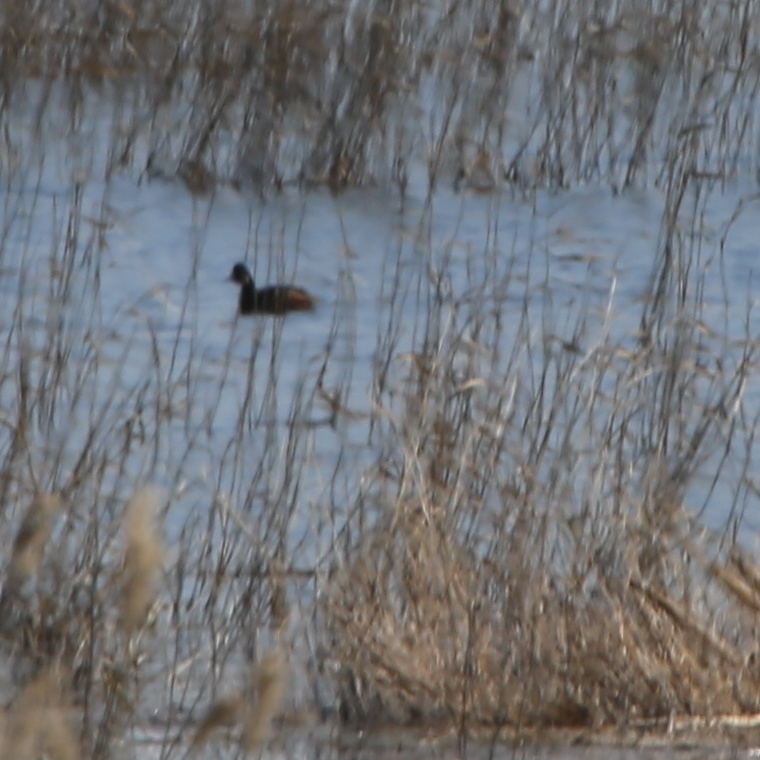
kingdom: Animalia
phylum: Chordata
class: Aves
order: Podicipediformes
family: Podicipedidae
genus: Podiceps
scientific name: Podiceps nigricollis
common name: Black-necked grebe
